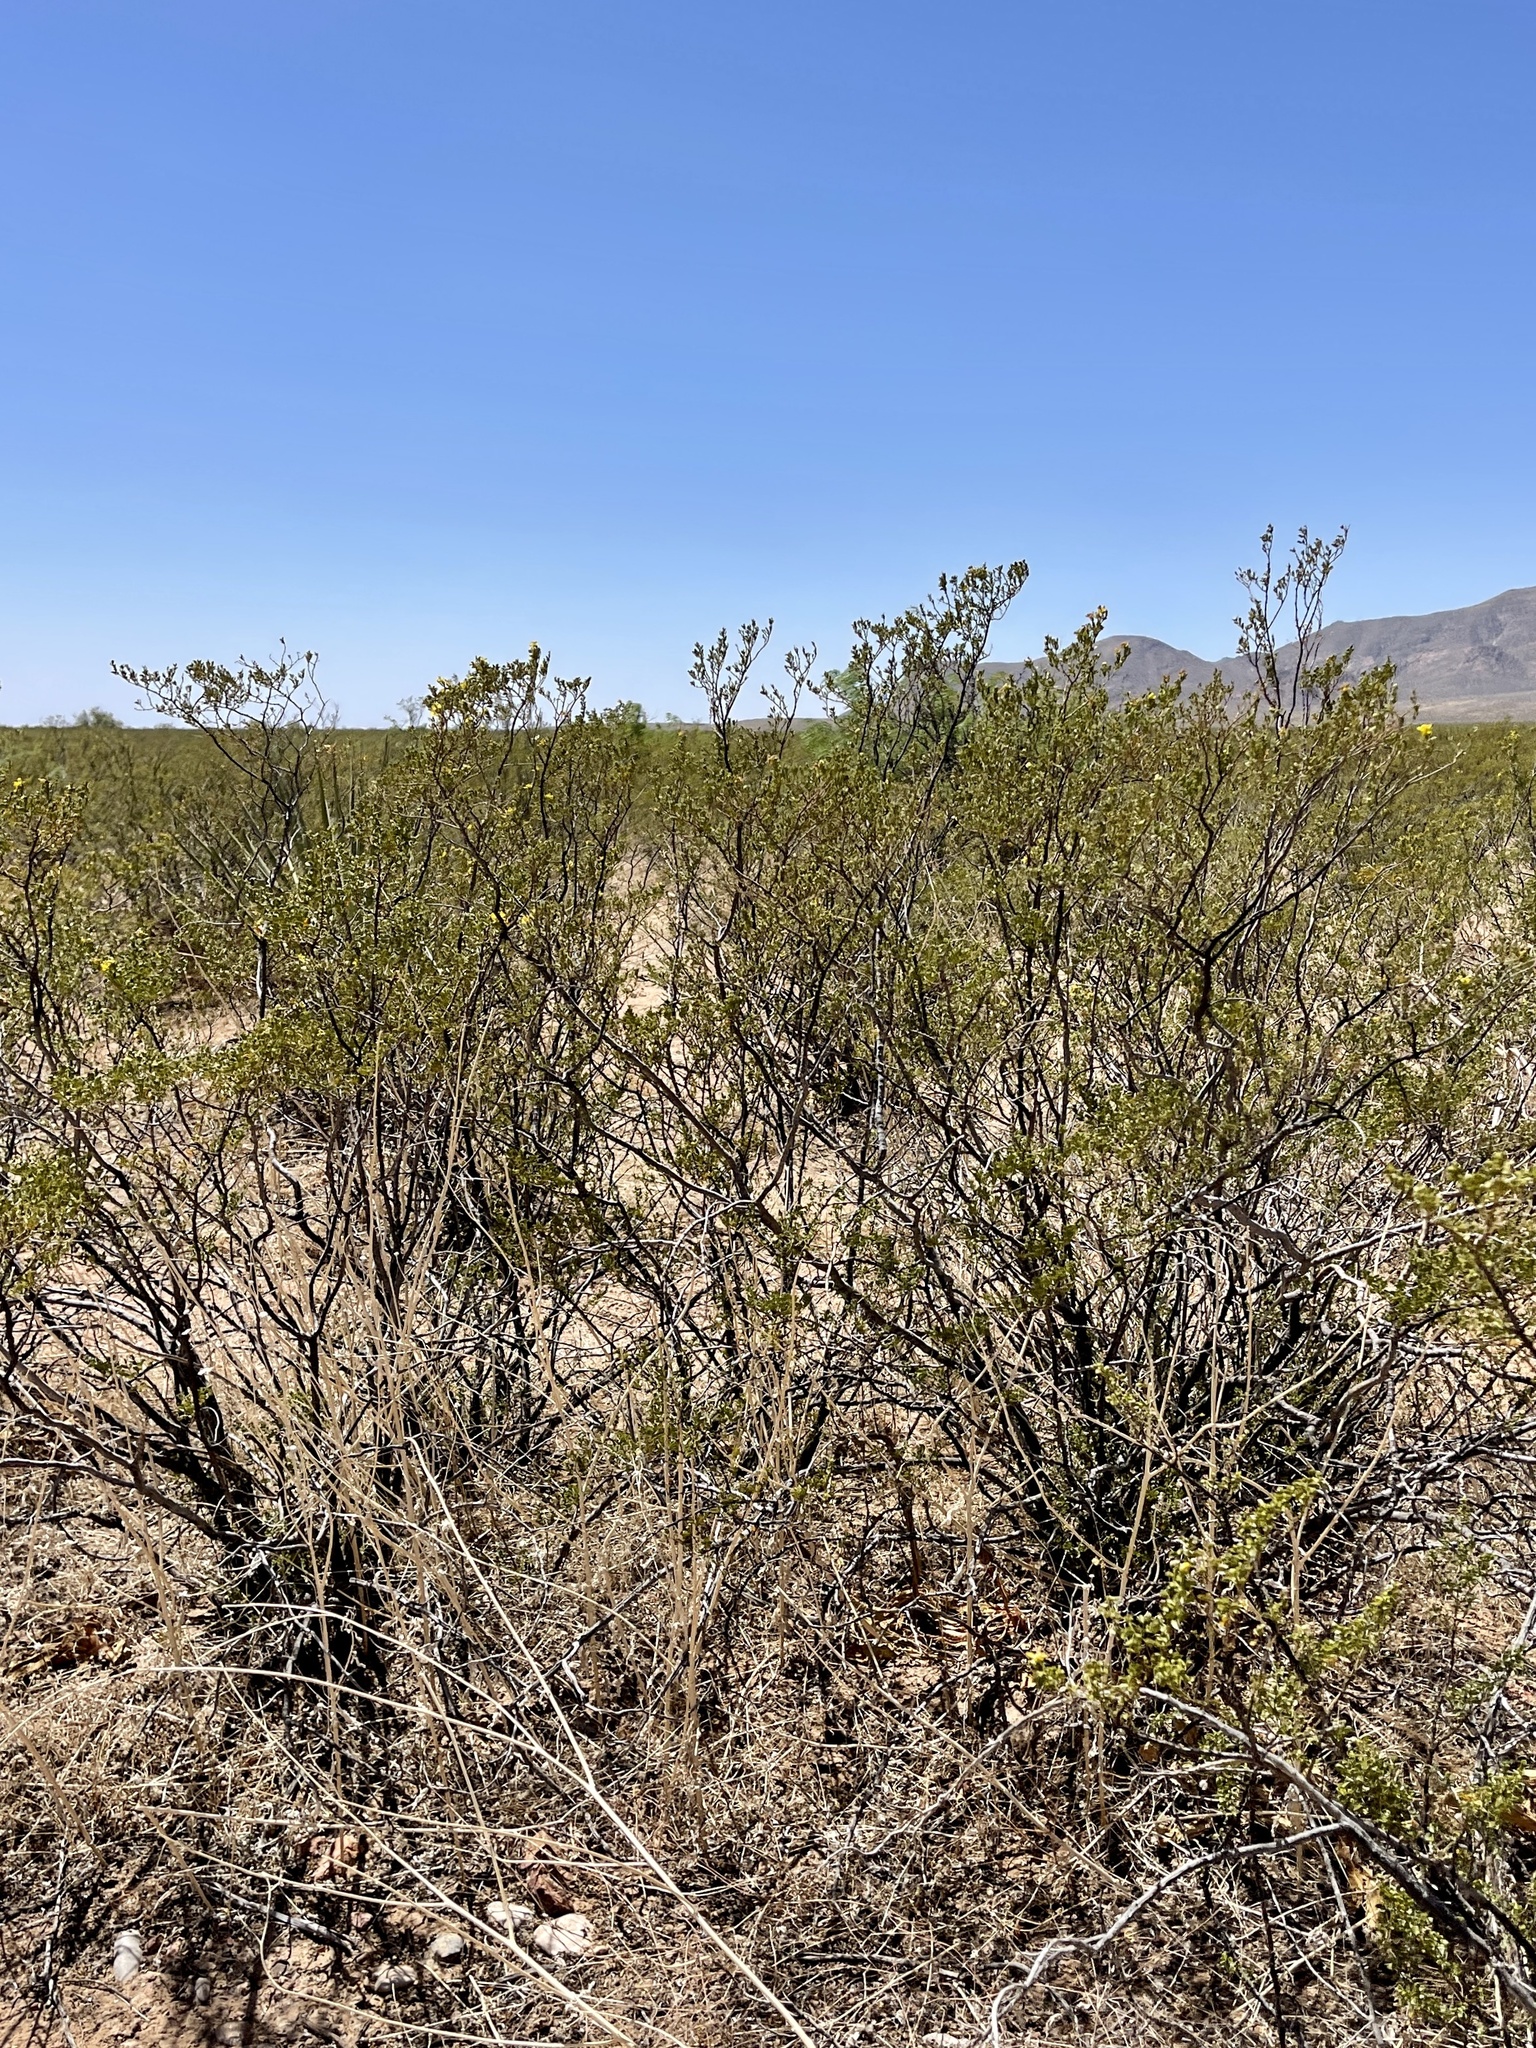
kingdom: Plantae
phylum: Tracheophyta
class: Magnoliopsida
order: Zygophyllales
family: Zygophyllaceae
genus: Larrea
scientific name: Larrea tridentata
